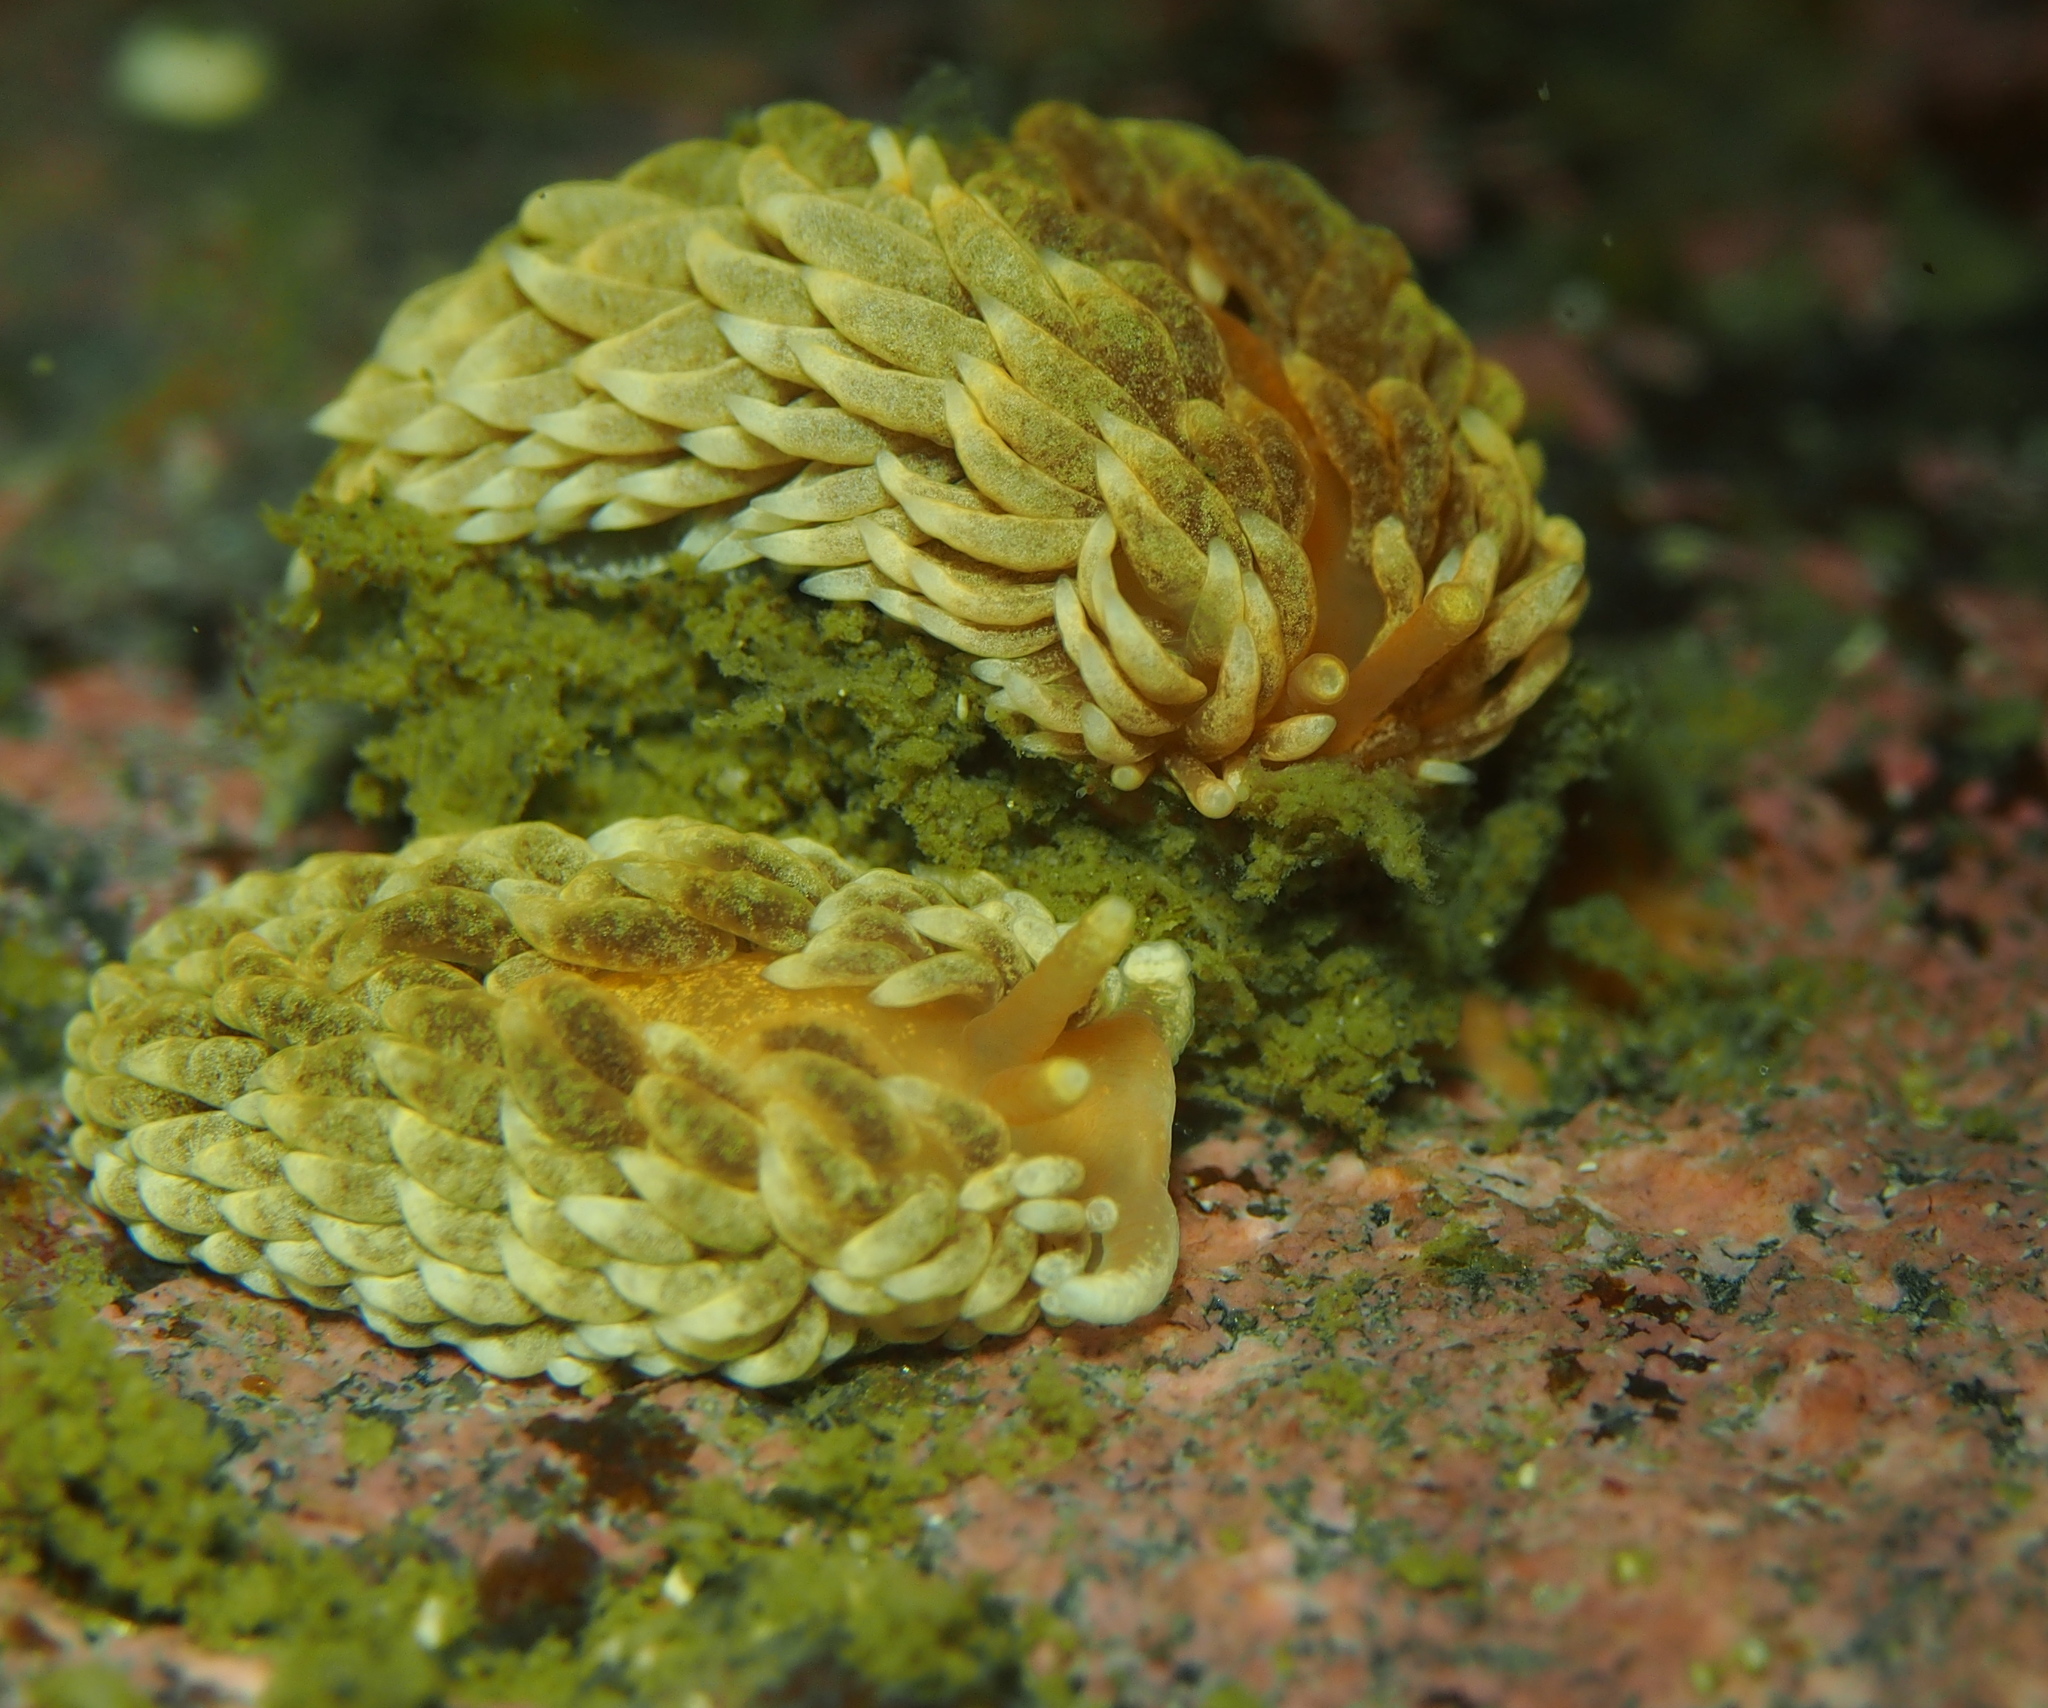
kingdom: Animalia
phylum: Mollusca
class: Gastropoda
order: Nudibranchia
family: Aeolidiidae
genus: Aeolidiella
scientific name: Aeolidiella glauca
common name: Orange-brown aeolid
